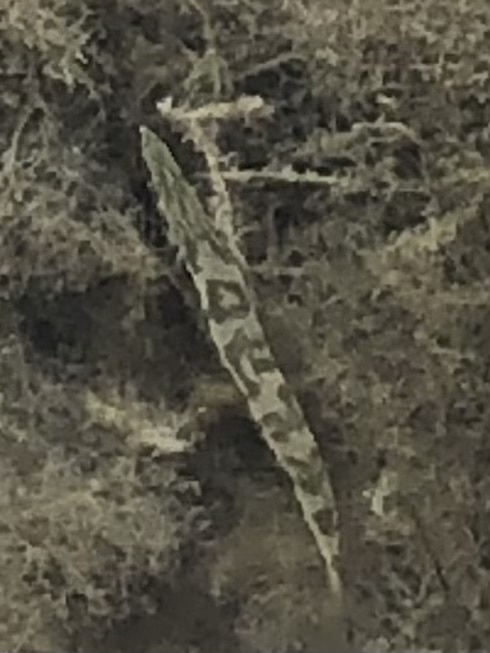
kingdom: Animalia
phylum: Chordata
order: Perciformes
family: Sphyraenidae
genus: Sphyraena
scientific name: Sphyraena barracuda
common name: Great barracuda
